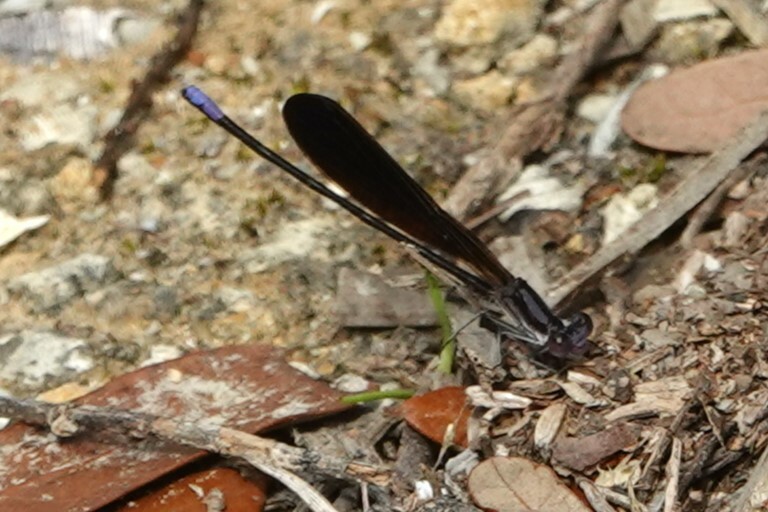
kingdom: Animalia
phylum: Arthropoda
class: Insecta
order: Odonata
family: Coenagrionidae
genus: Argia
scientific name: Argia fumipennis
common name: Variable dancer
